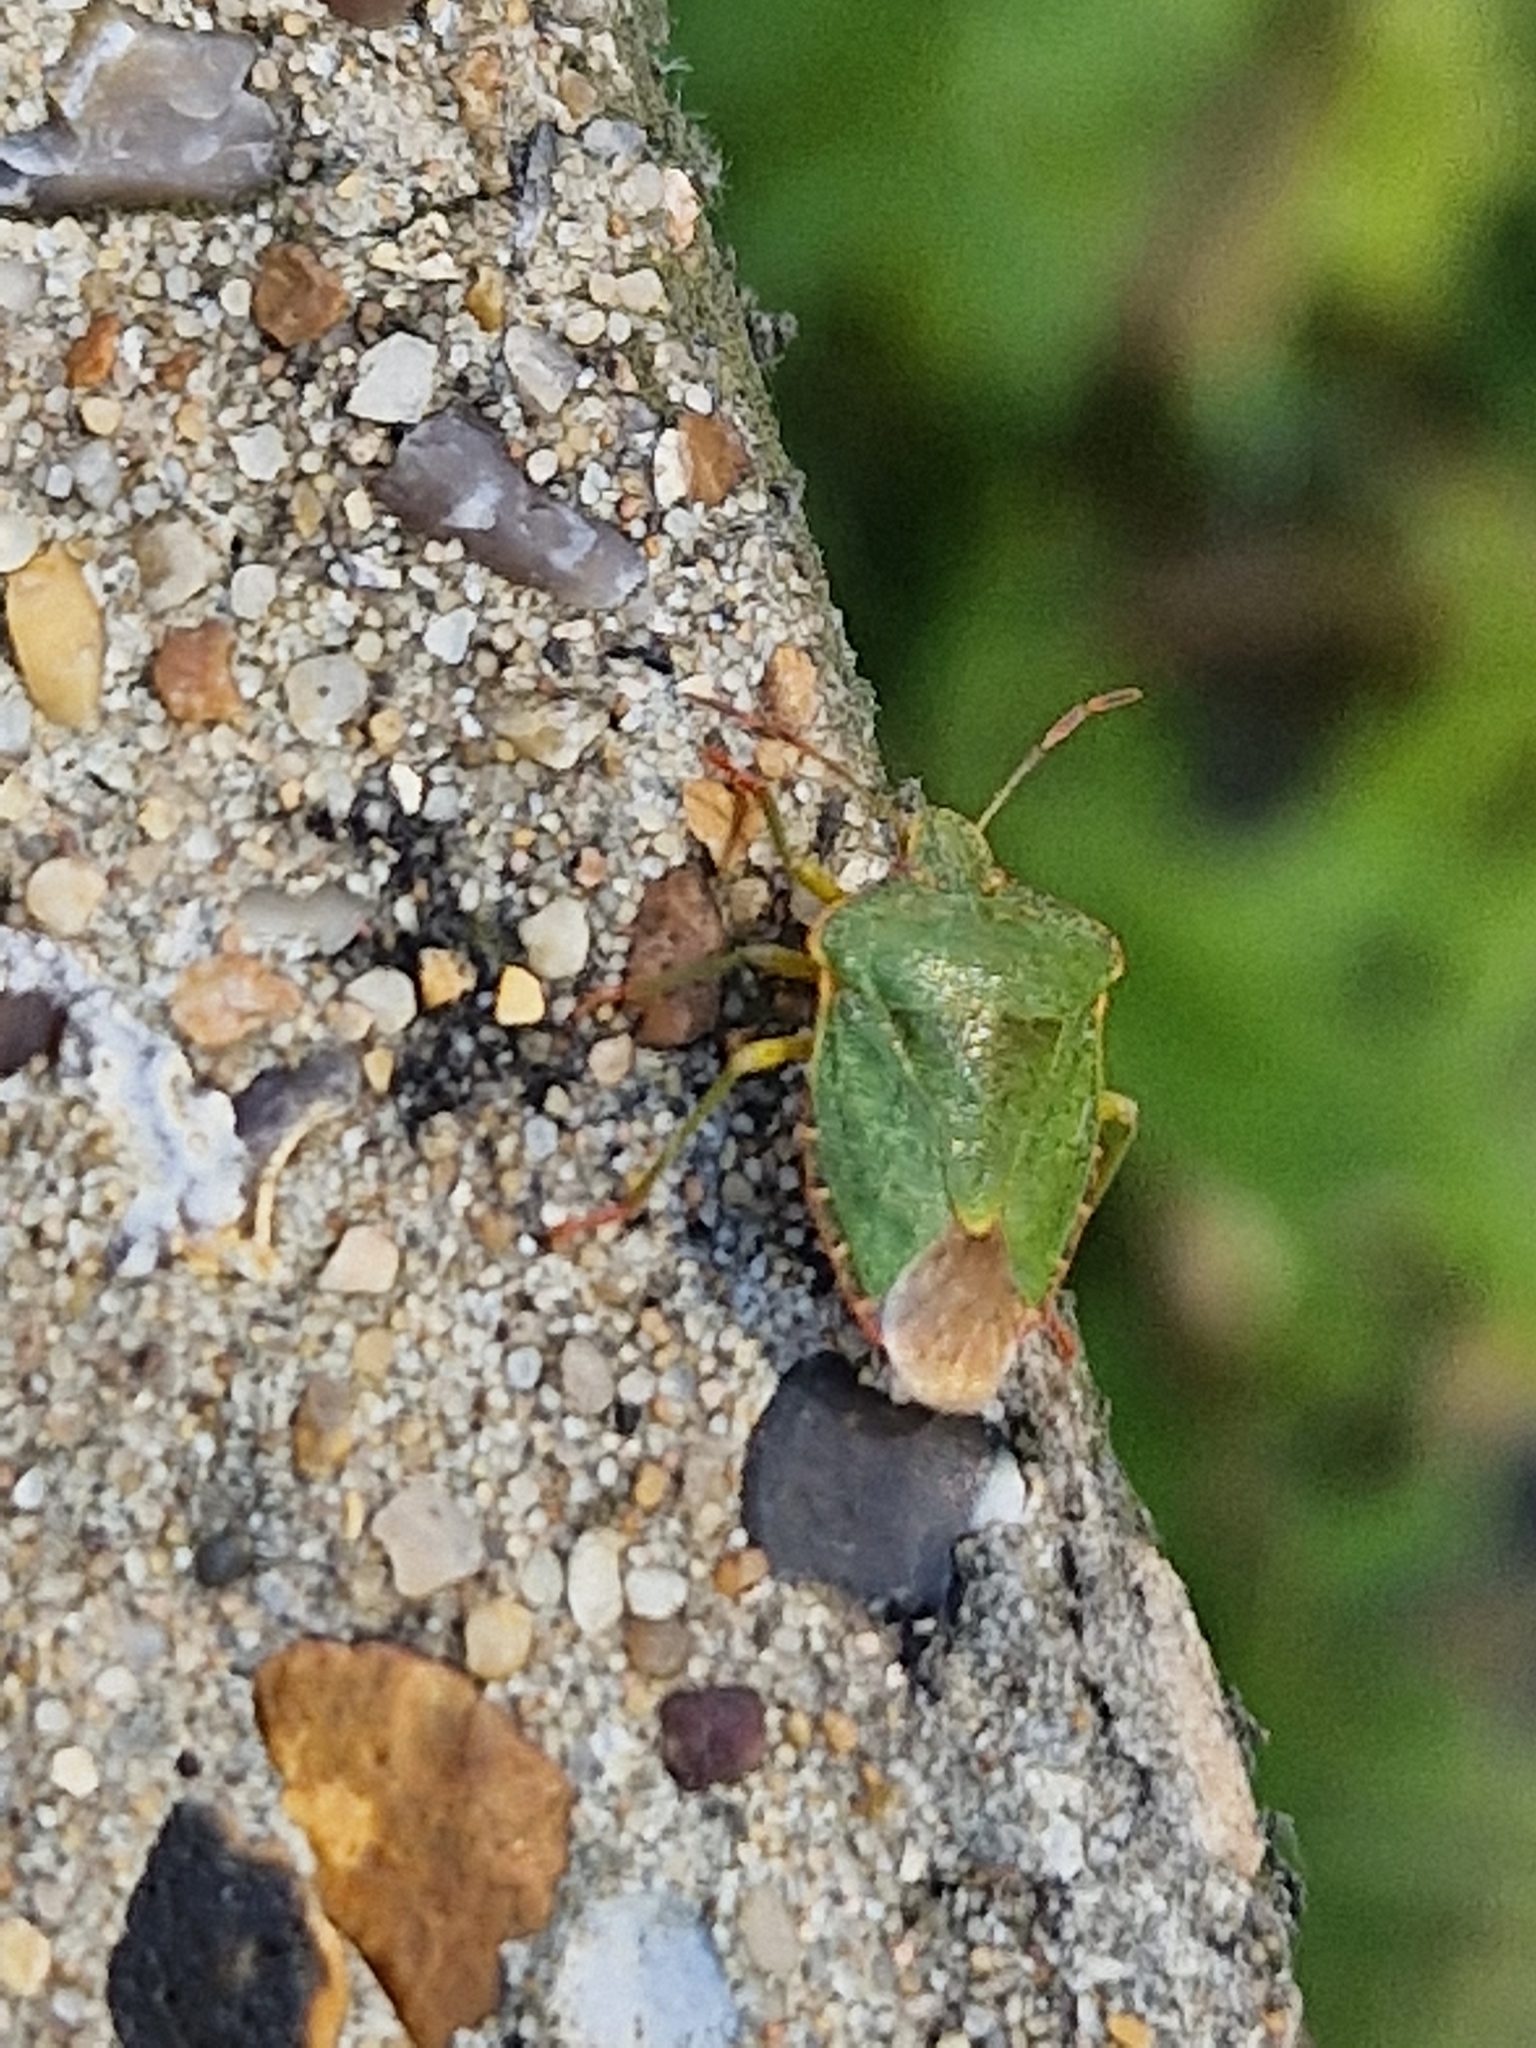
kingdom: Animalia
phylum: Arthropoda
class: Insecta
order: Hemiptera
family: Pentatomidae
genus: Palomena
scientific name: Palomena prasina
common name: Green shieldbug
